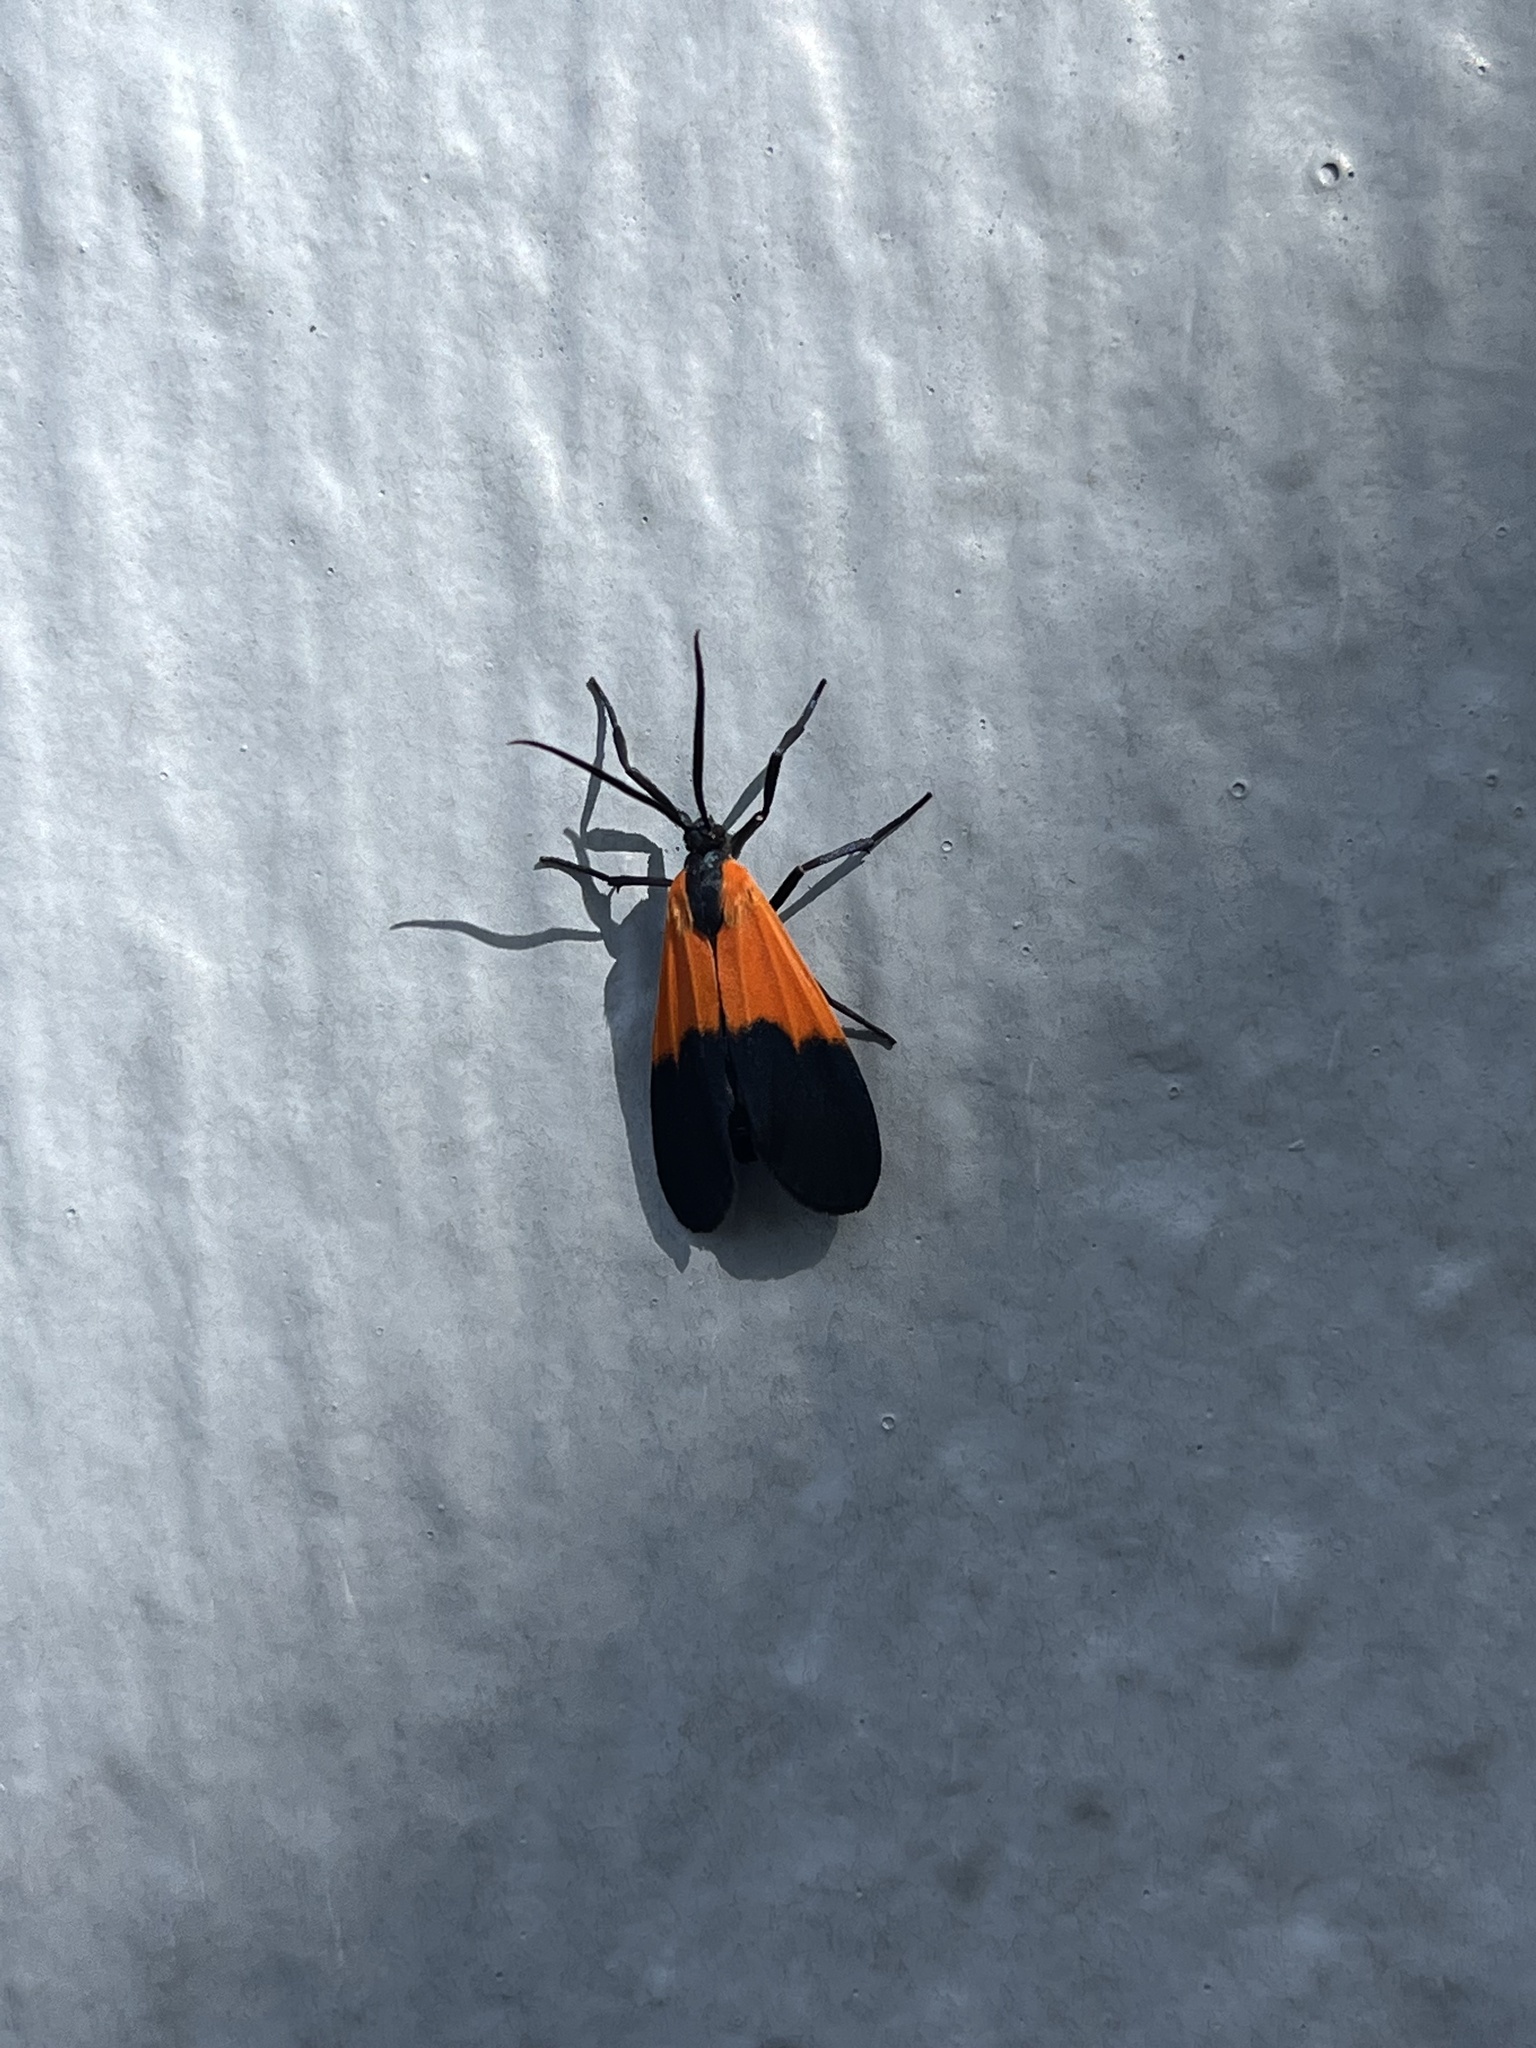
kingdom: Animalia
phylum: Arthropoda
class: Insecta
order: Lepidoptera
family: Erebidae
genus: Lycomorpha
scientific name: Lycomorpha pholus
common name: Black-and-yellow lichen moth
